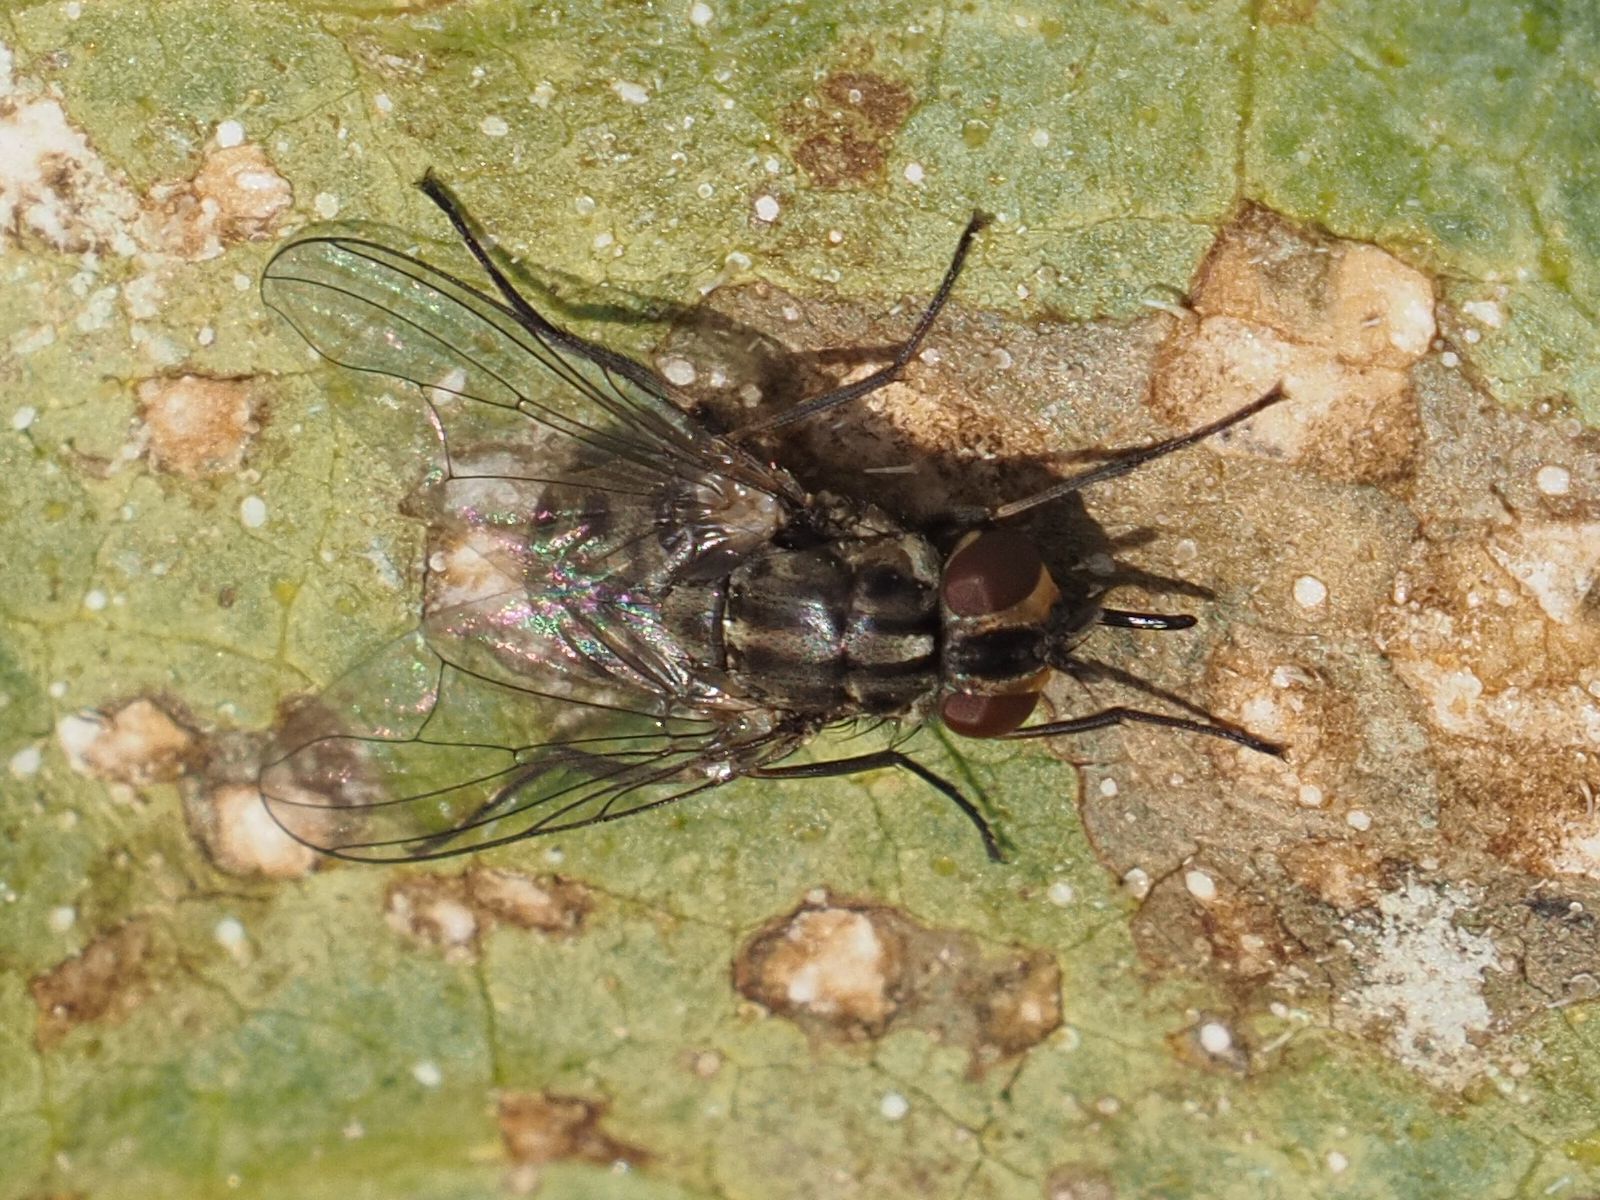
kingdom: Animalia
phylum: Arthropoda
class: Insecta
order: Diptera
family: Muscidae
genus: Stomoxys
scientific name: Stomoxys calcitrans
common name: Stable fly
